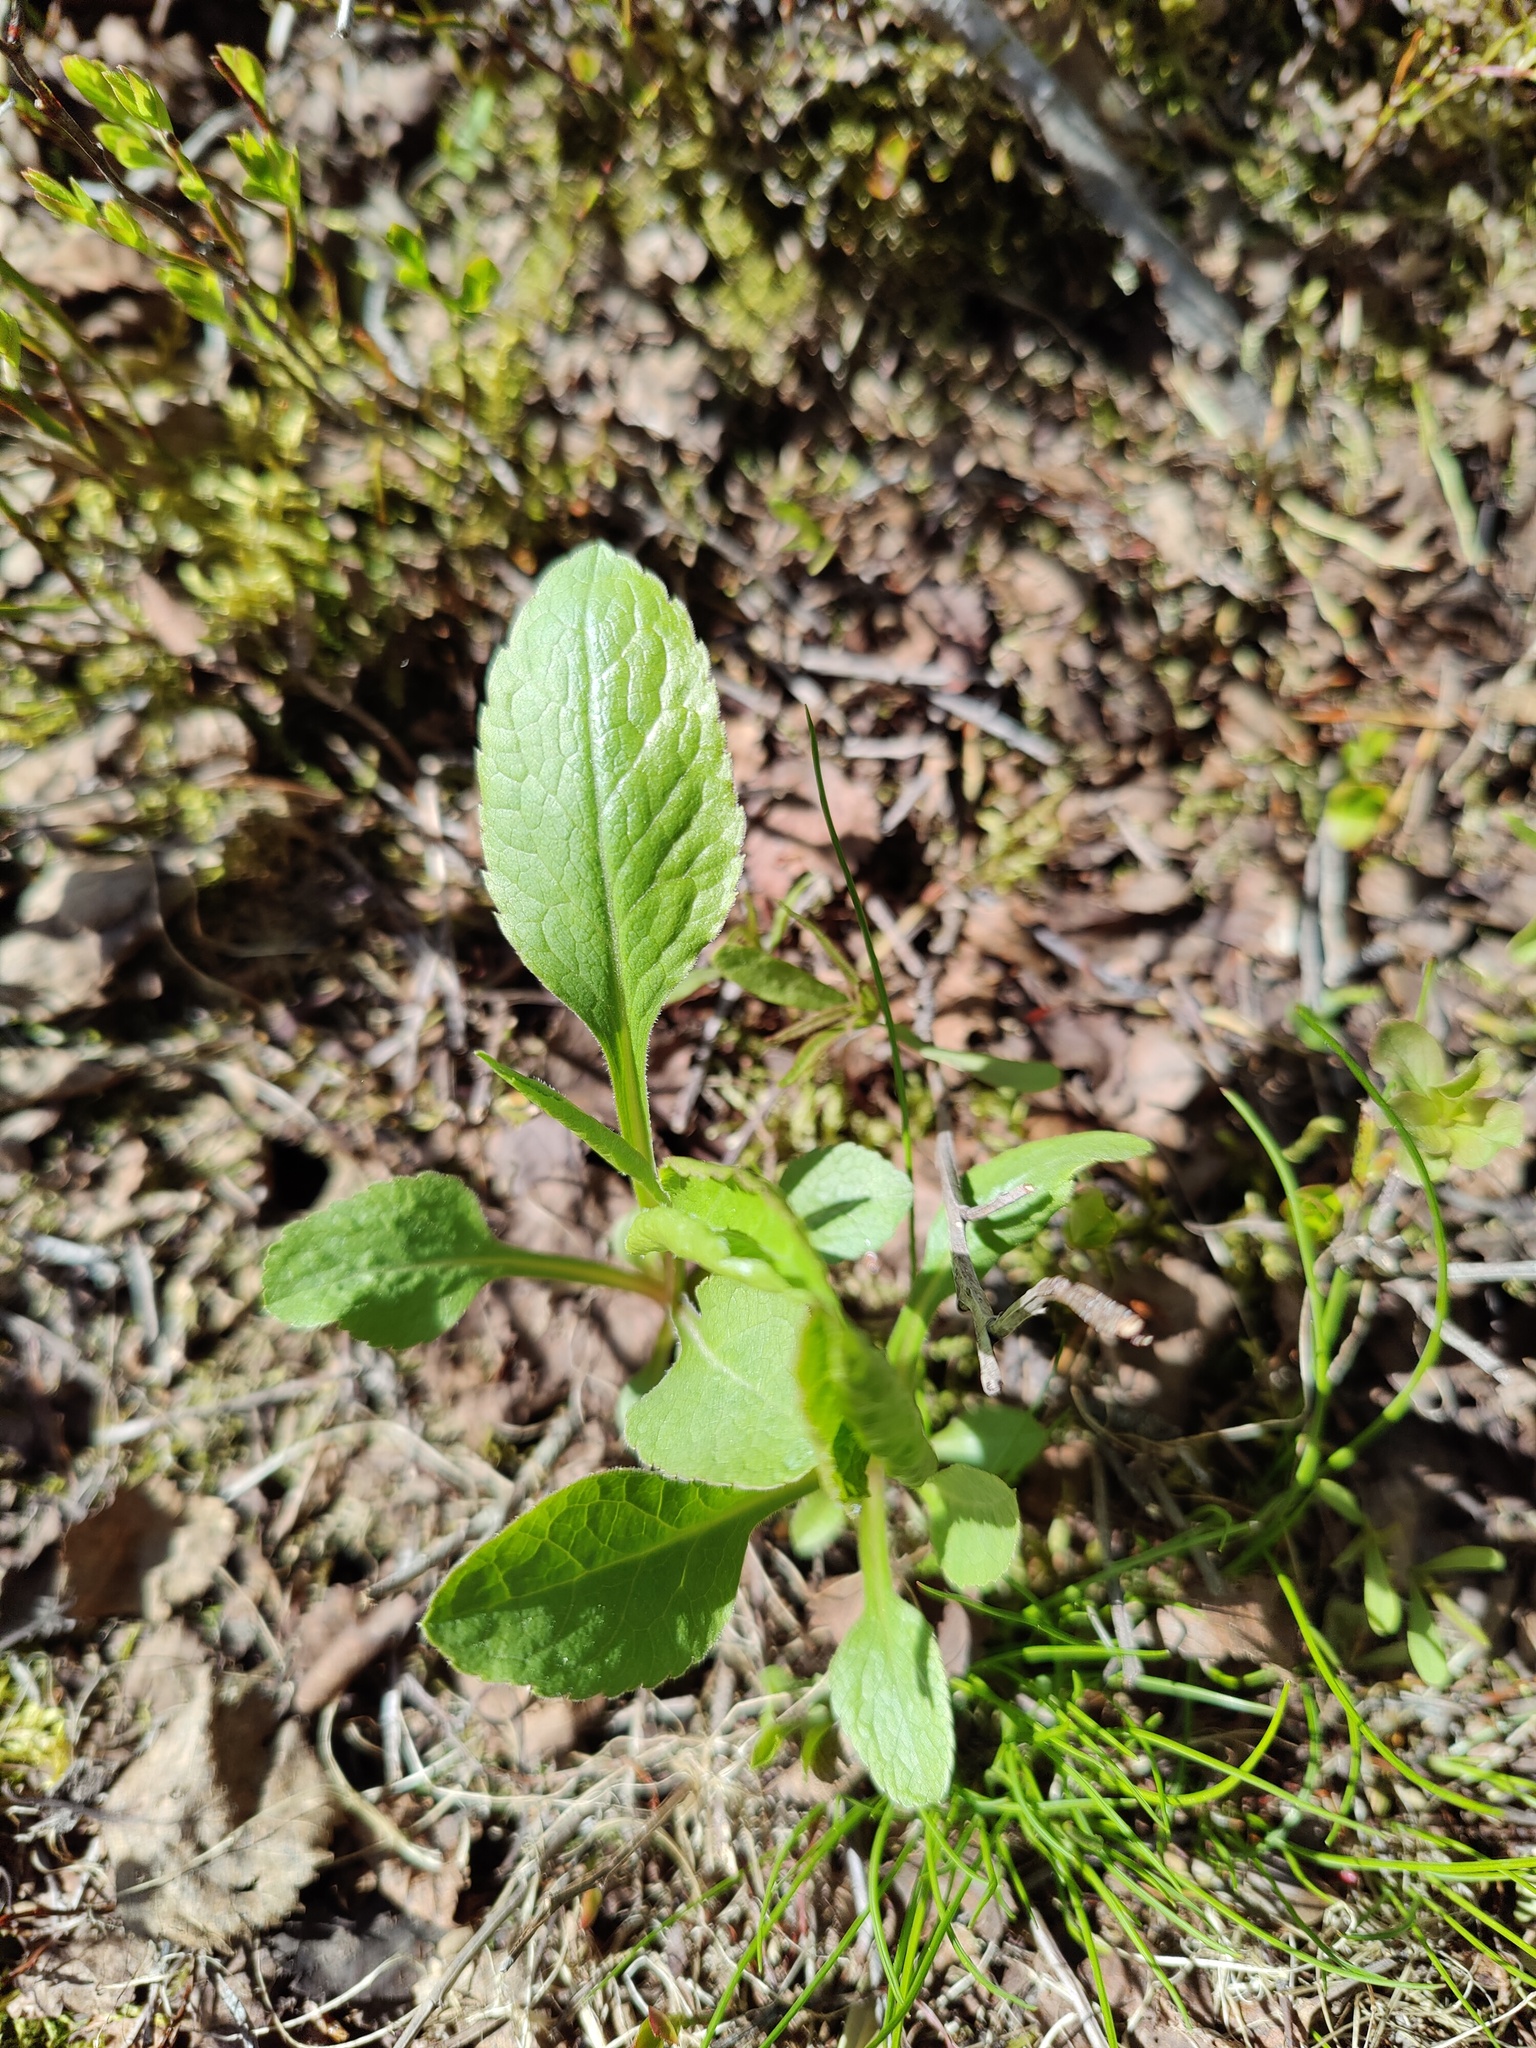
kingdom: Plantae
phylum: Tracheophyta
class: Magnoliopsida
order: Asterales
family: Asteraceae
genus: Solidago
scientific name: Solidago virgaurea
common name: Goldenrod
